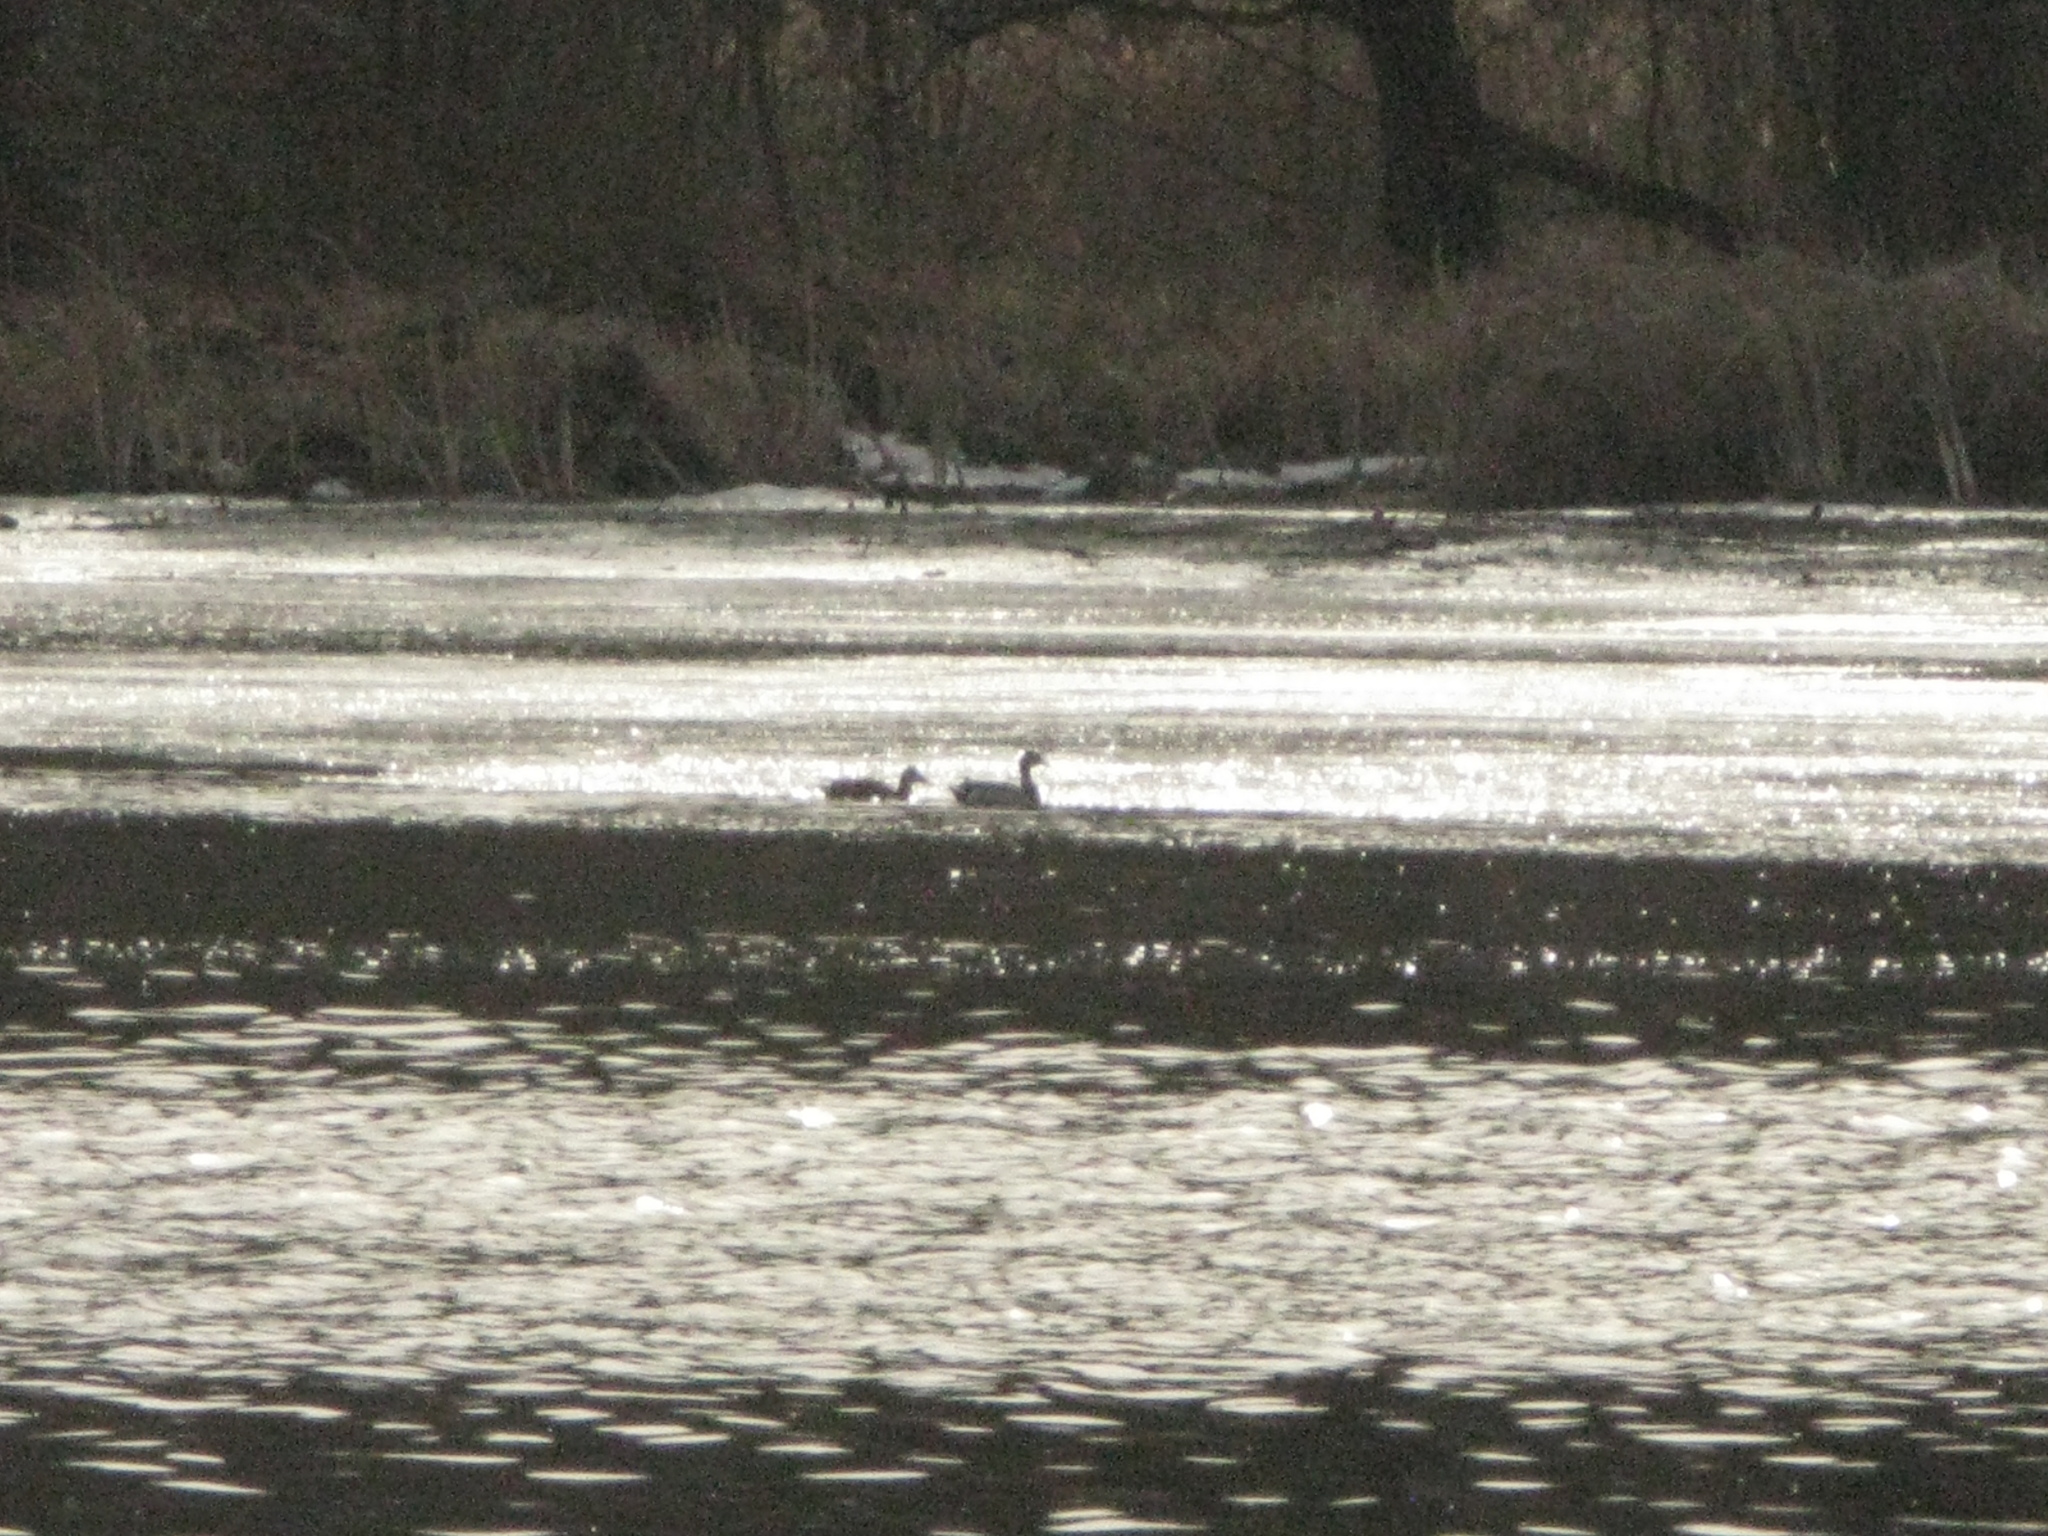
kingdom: Animalia
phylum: Chordata
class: Aves
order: Anseriformes
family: Anatidae
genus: Anas
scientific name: Anas platyrhynchos
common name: Mallard
